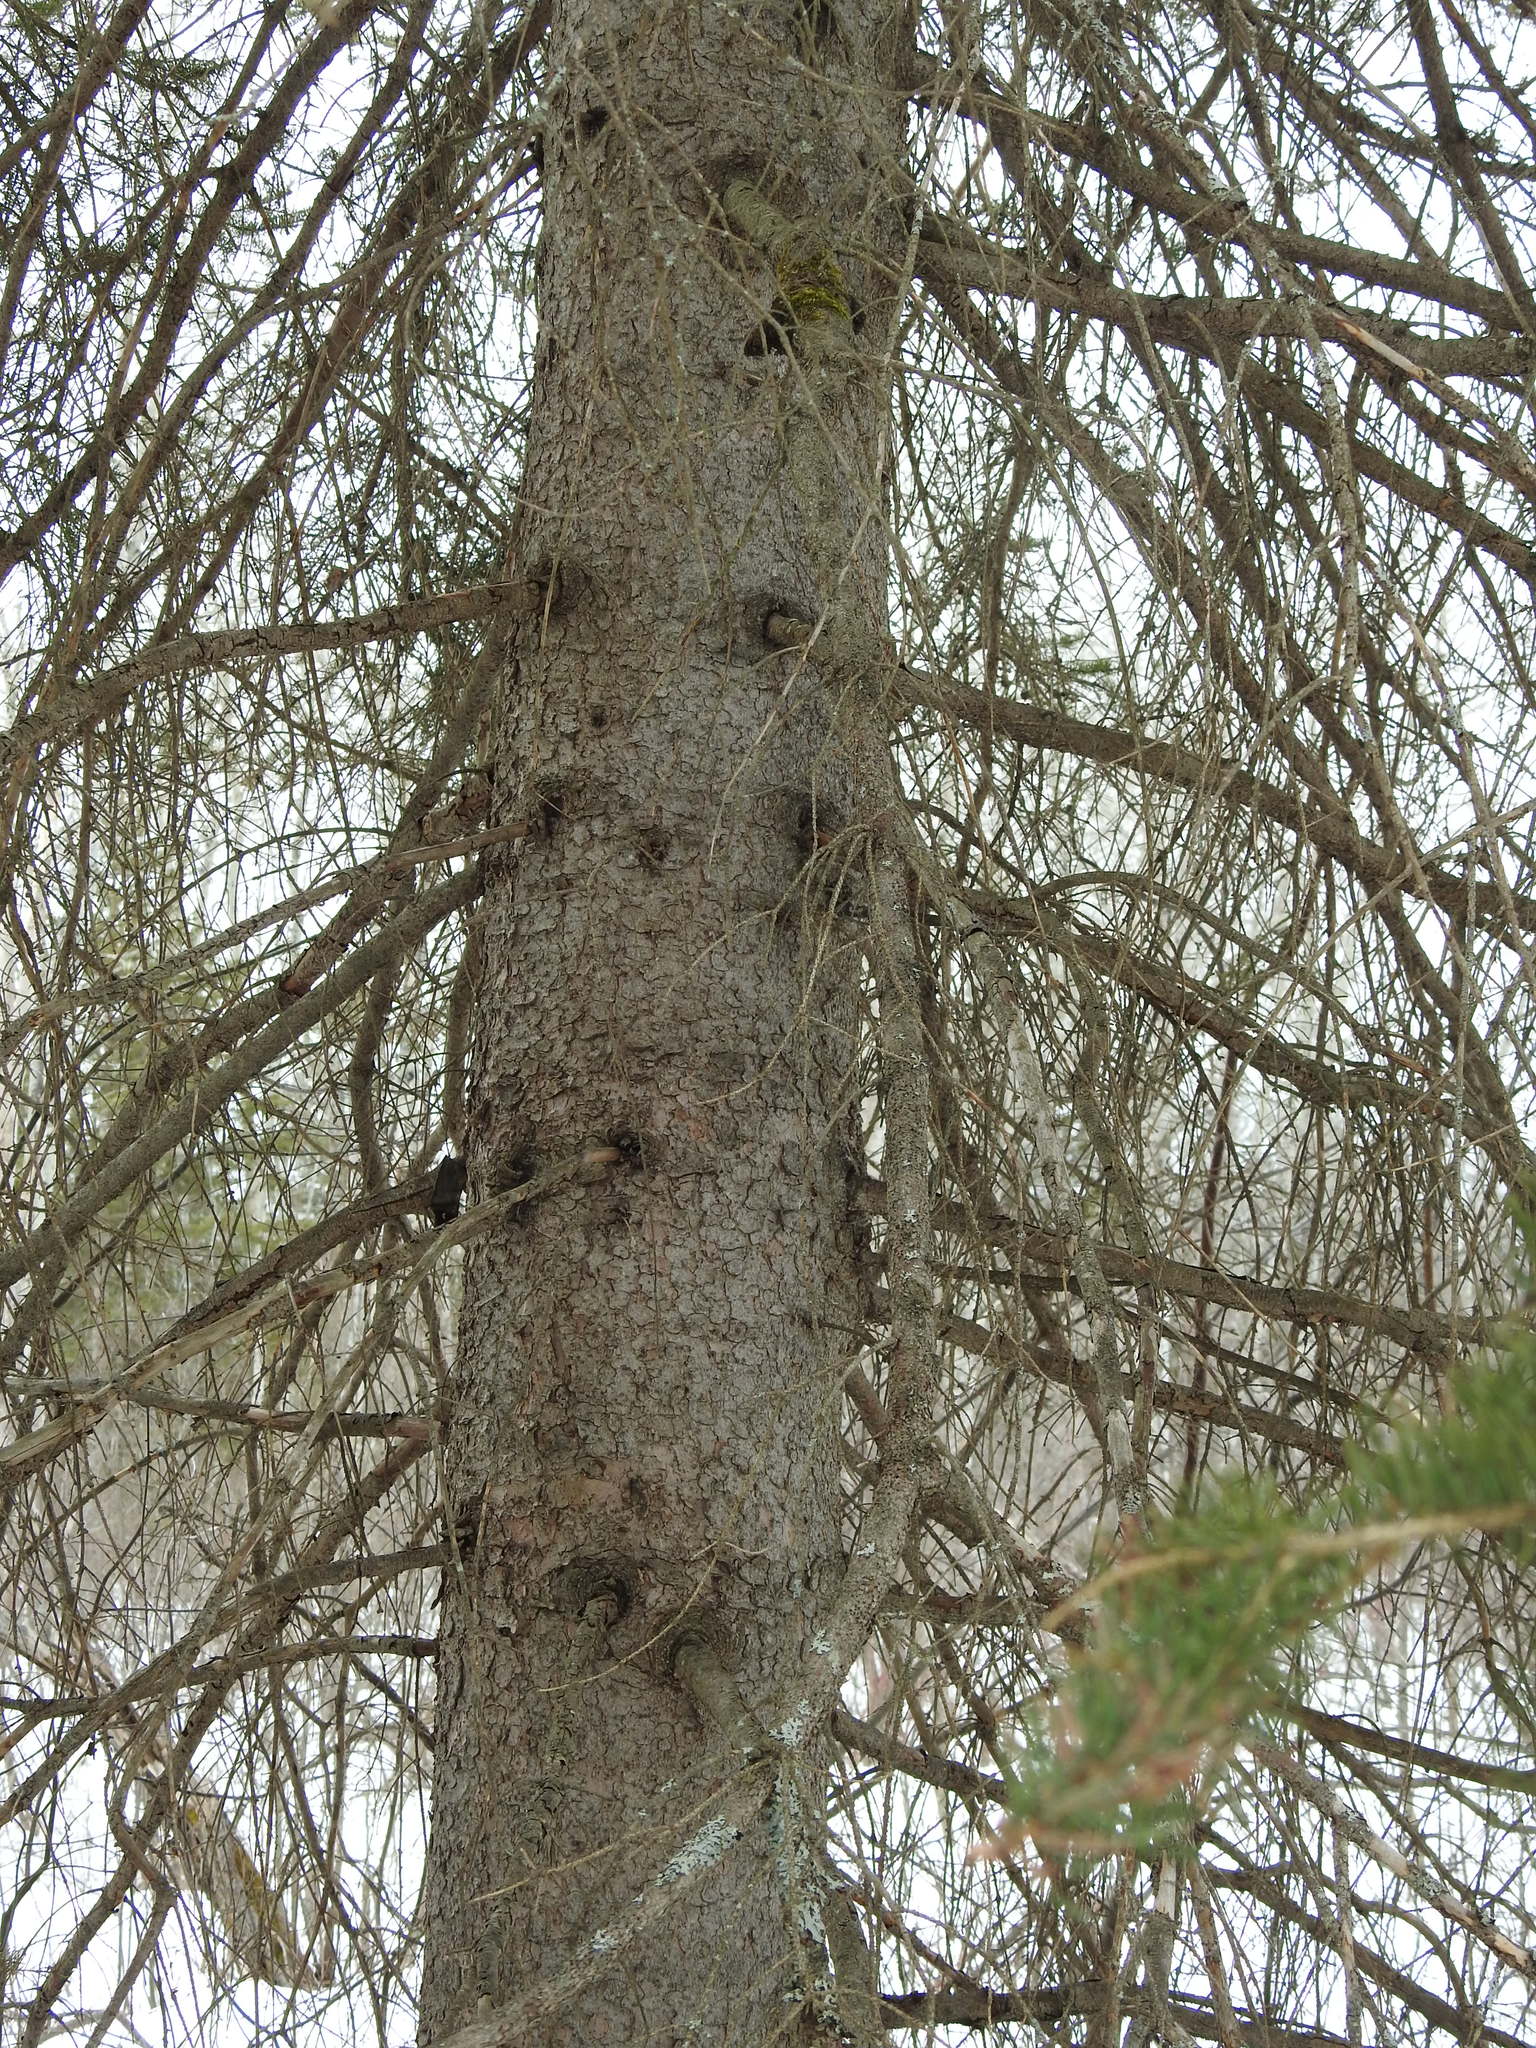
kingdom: Plantae
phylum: Tracheophyta
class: Pinopsida
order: Pinales
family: Pinaceae
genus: Picea
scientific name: Picea glauca
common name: White spruce
